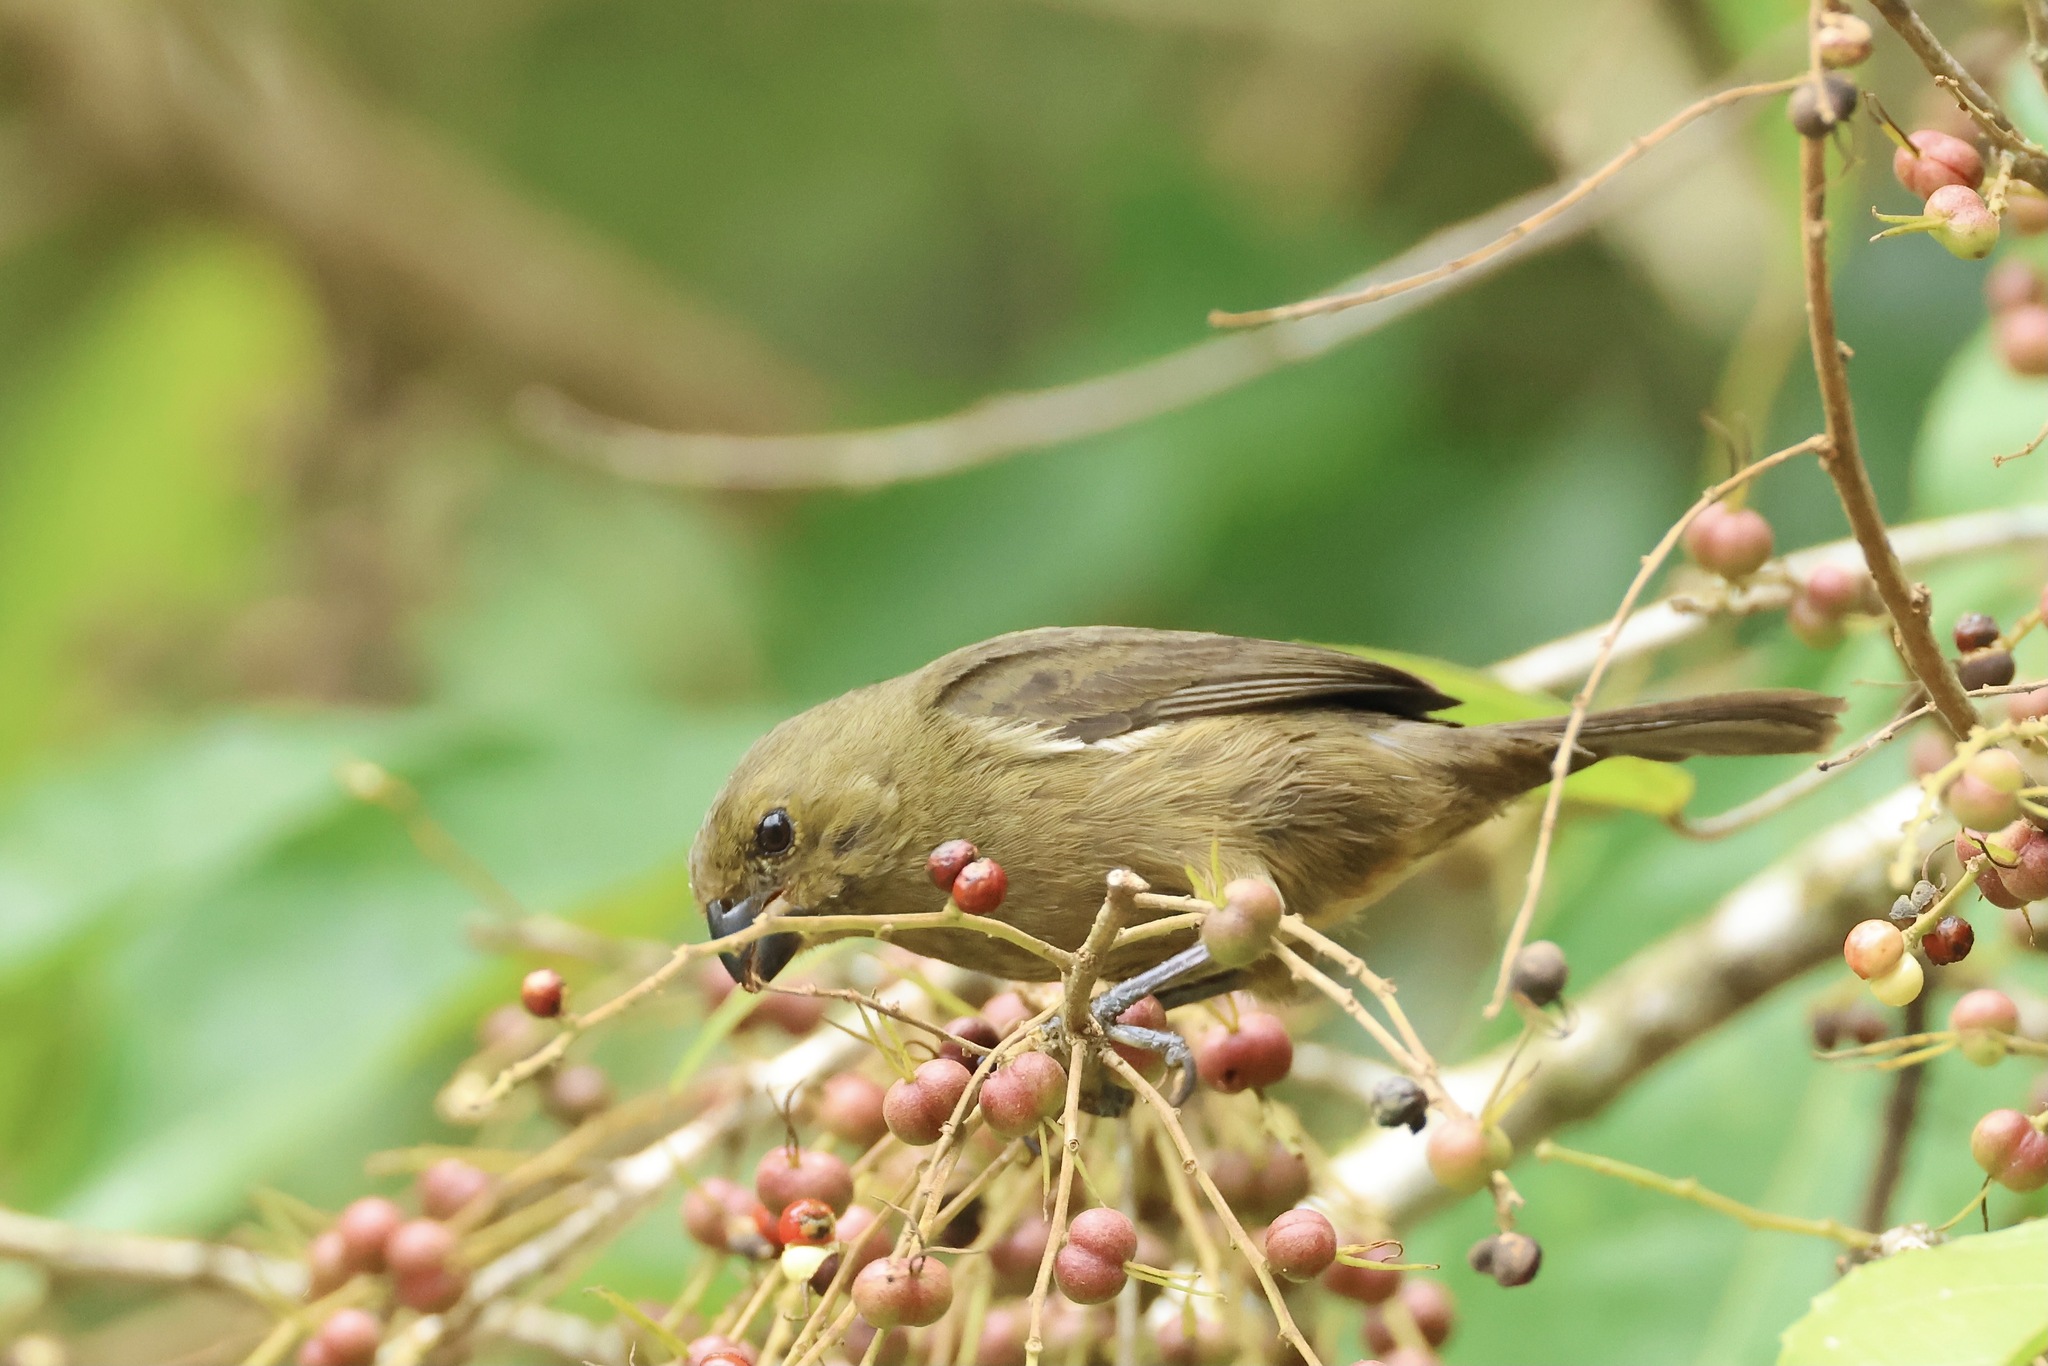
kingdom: Animalia
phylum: Chordata
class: Aves
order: Passeriformes
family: Thraupidae
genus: Sporophila
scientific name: Sporophila corvina
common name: Variable seedeater
